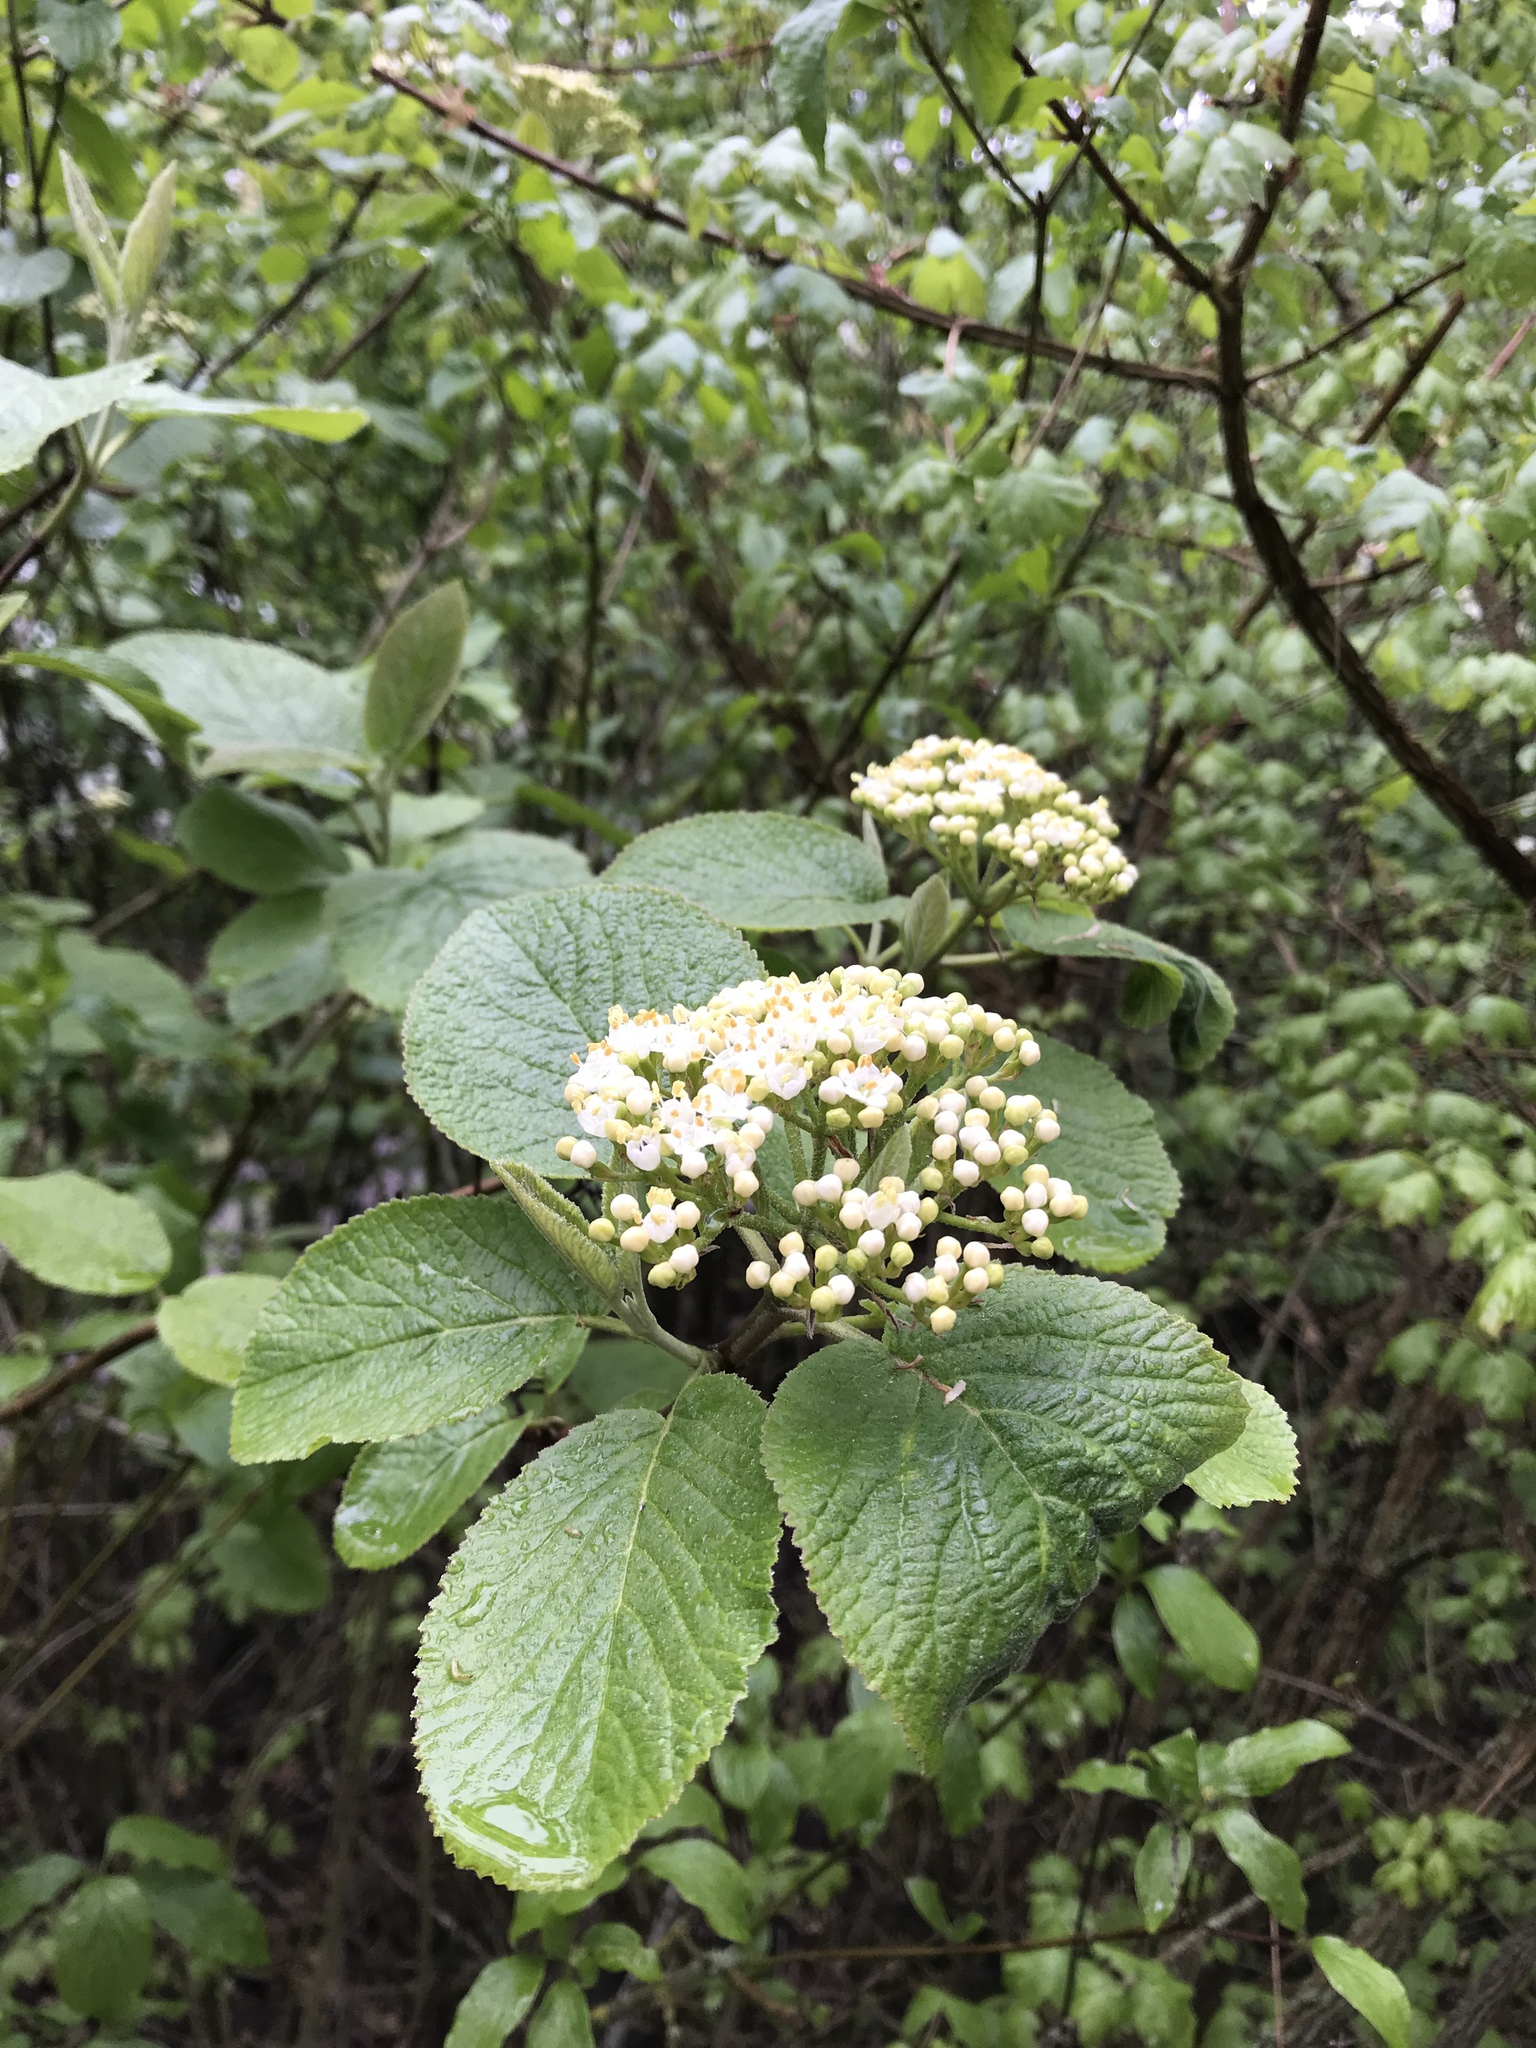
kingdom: Plantae
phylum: Tracheophyta
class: Magnoliopsida
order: Dipsacales
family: Viburnaceae
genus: Viburnum
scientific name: Viburnum lantana
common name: Wayfaring tree
